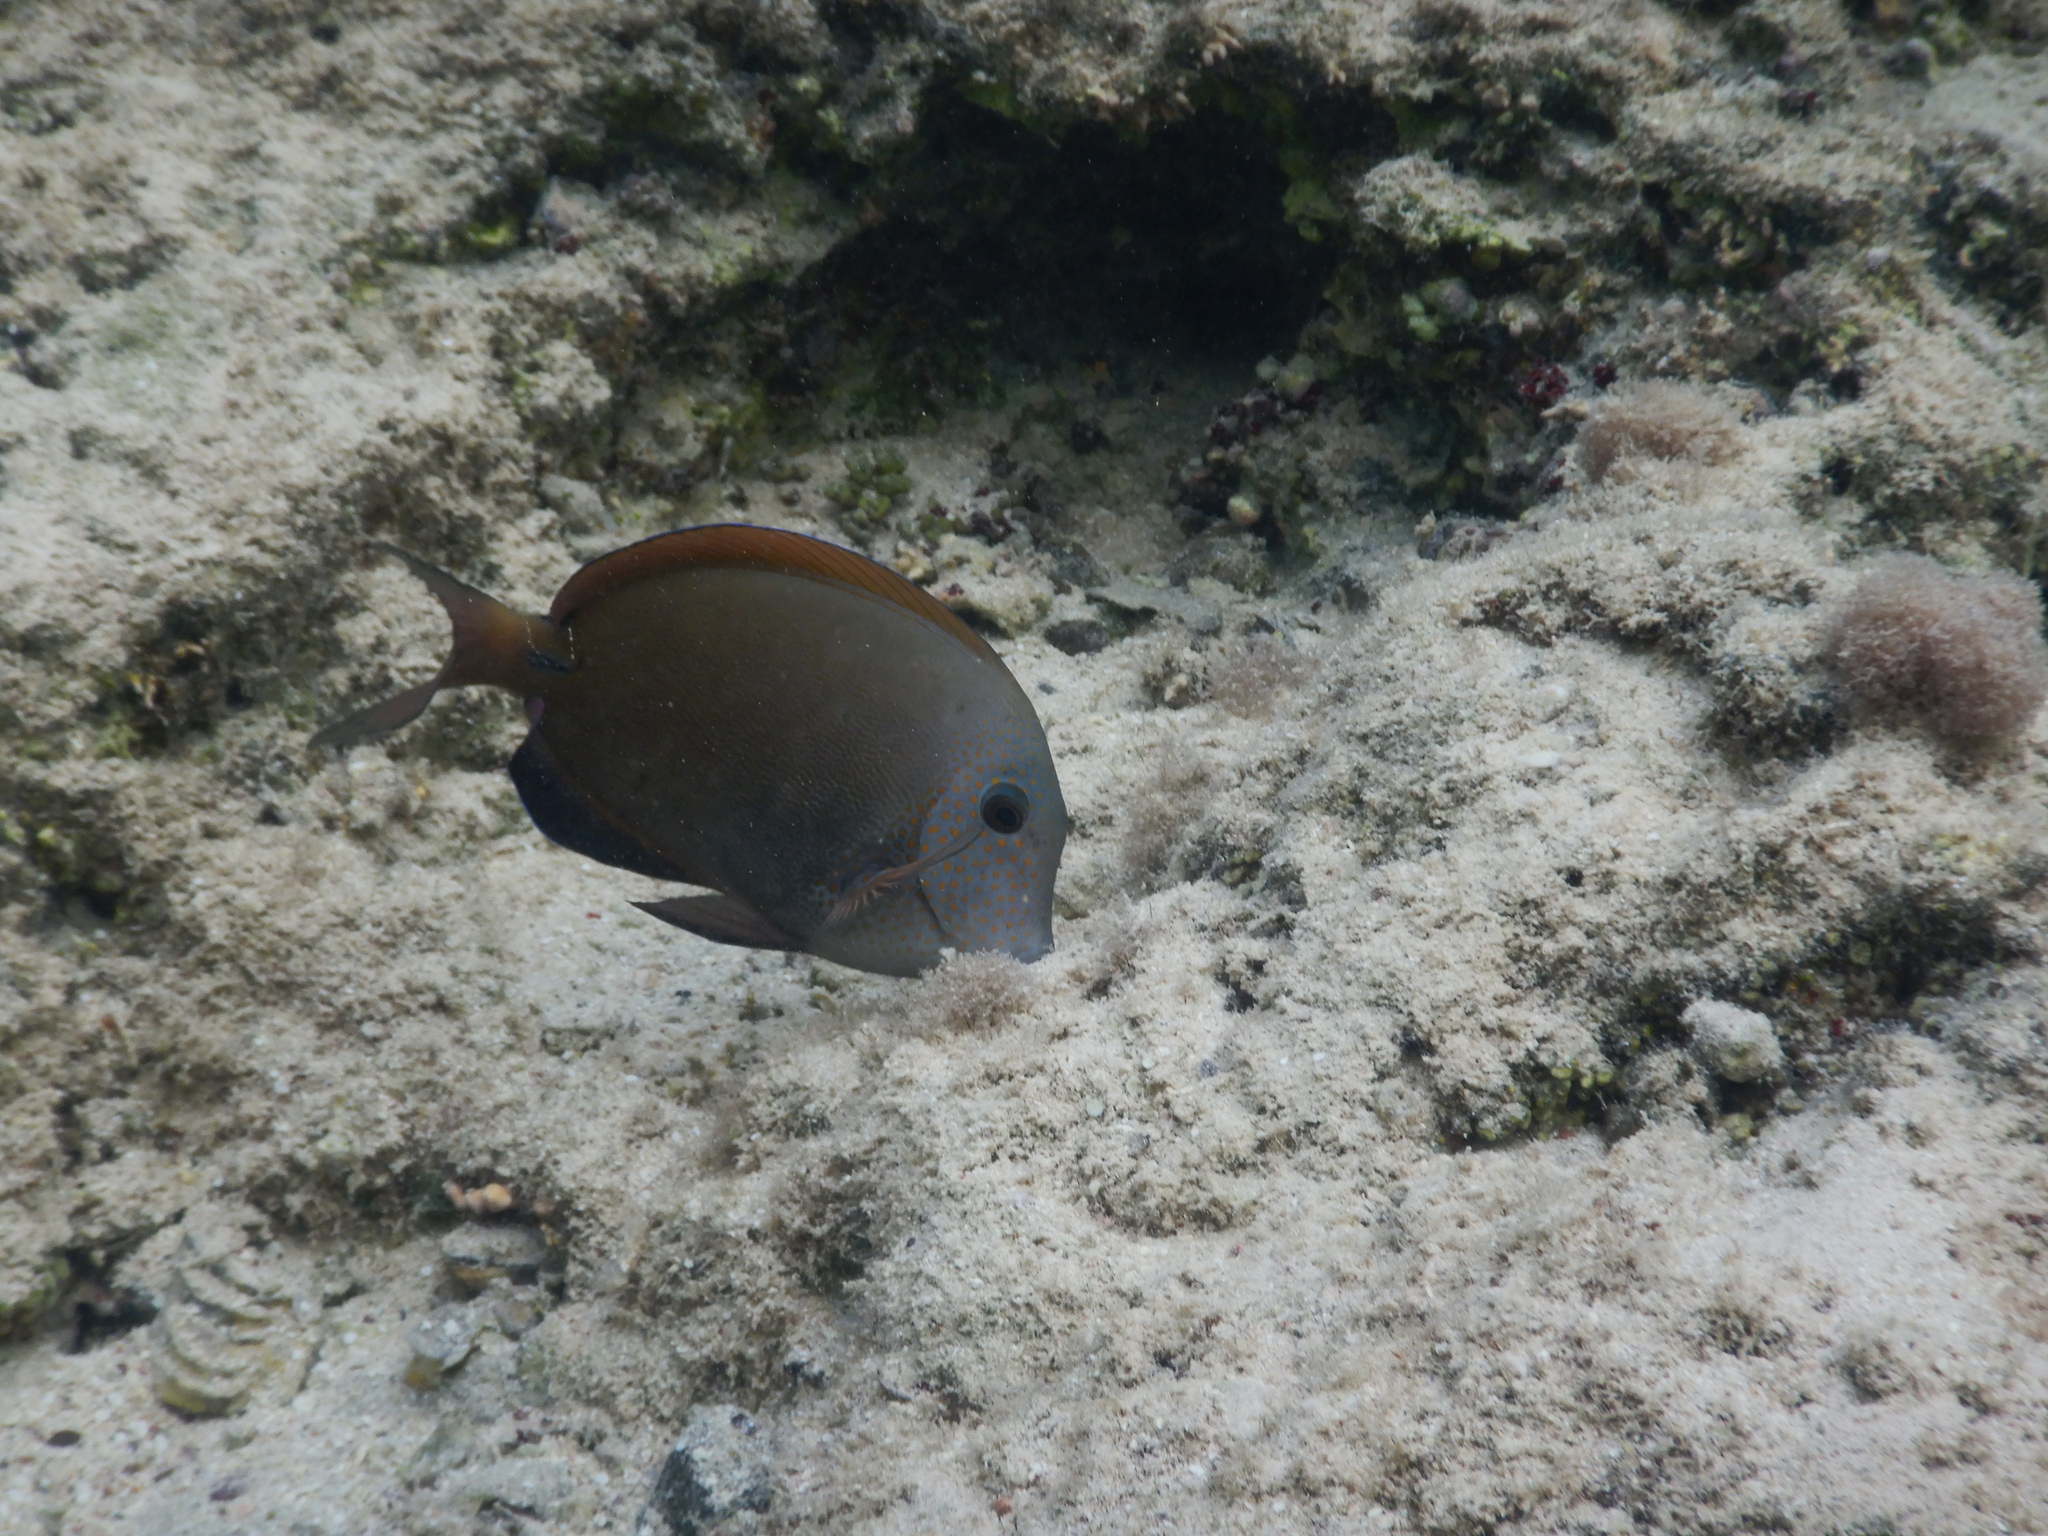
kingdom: Animalia
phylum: Chordata
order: Perciformes
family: Acanthuridae
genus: Acanthurus
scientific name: Acanthurus nigrofuscus
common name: Blackspot surgeonfish
